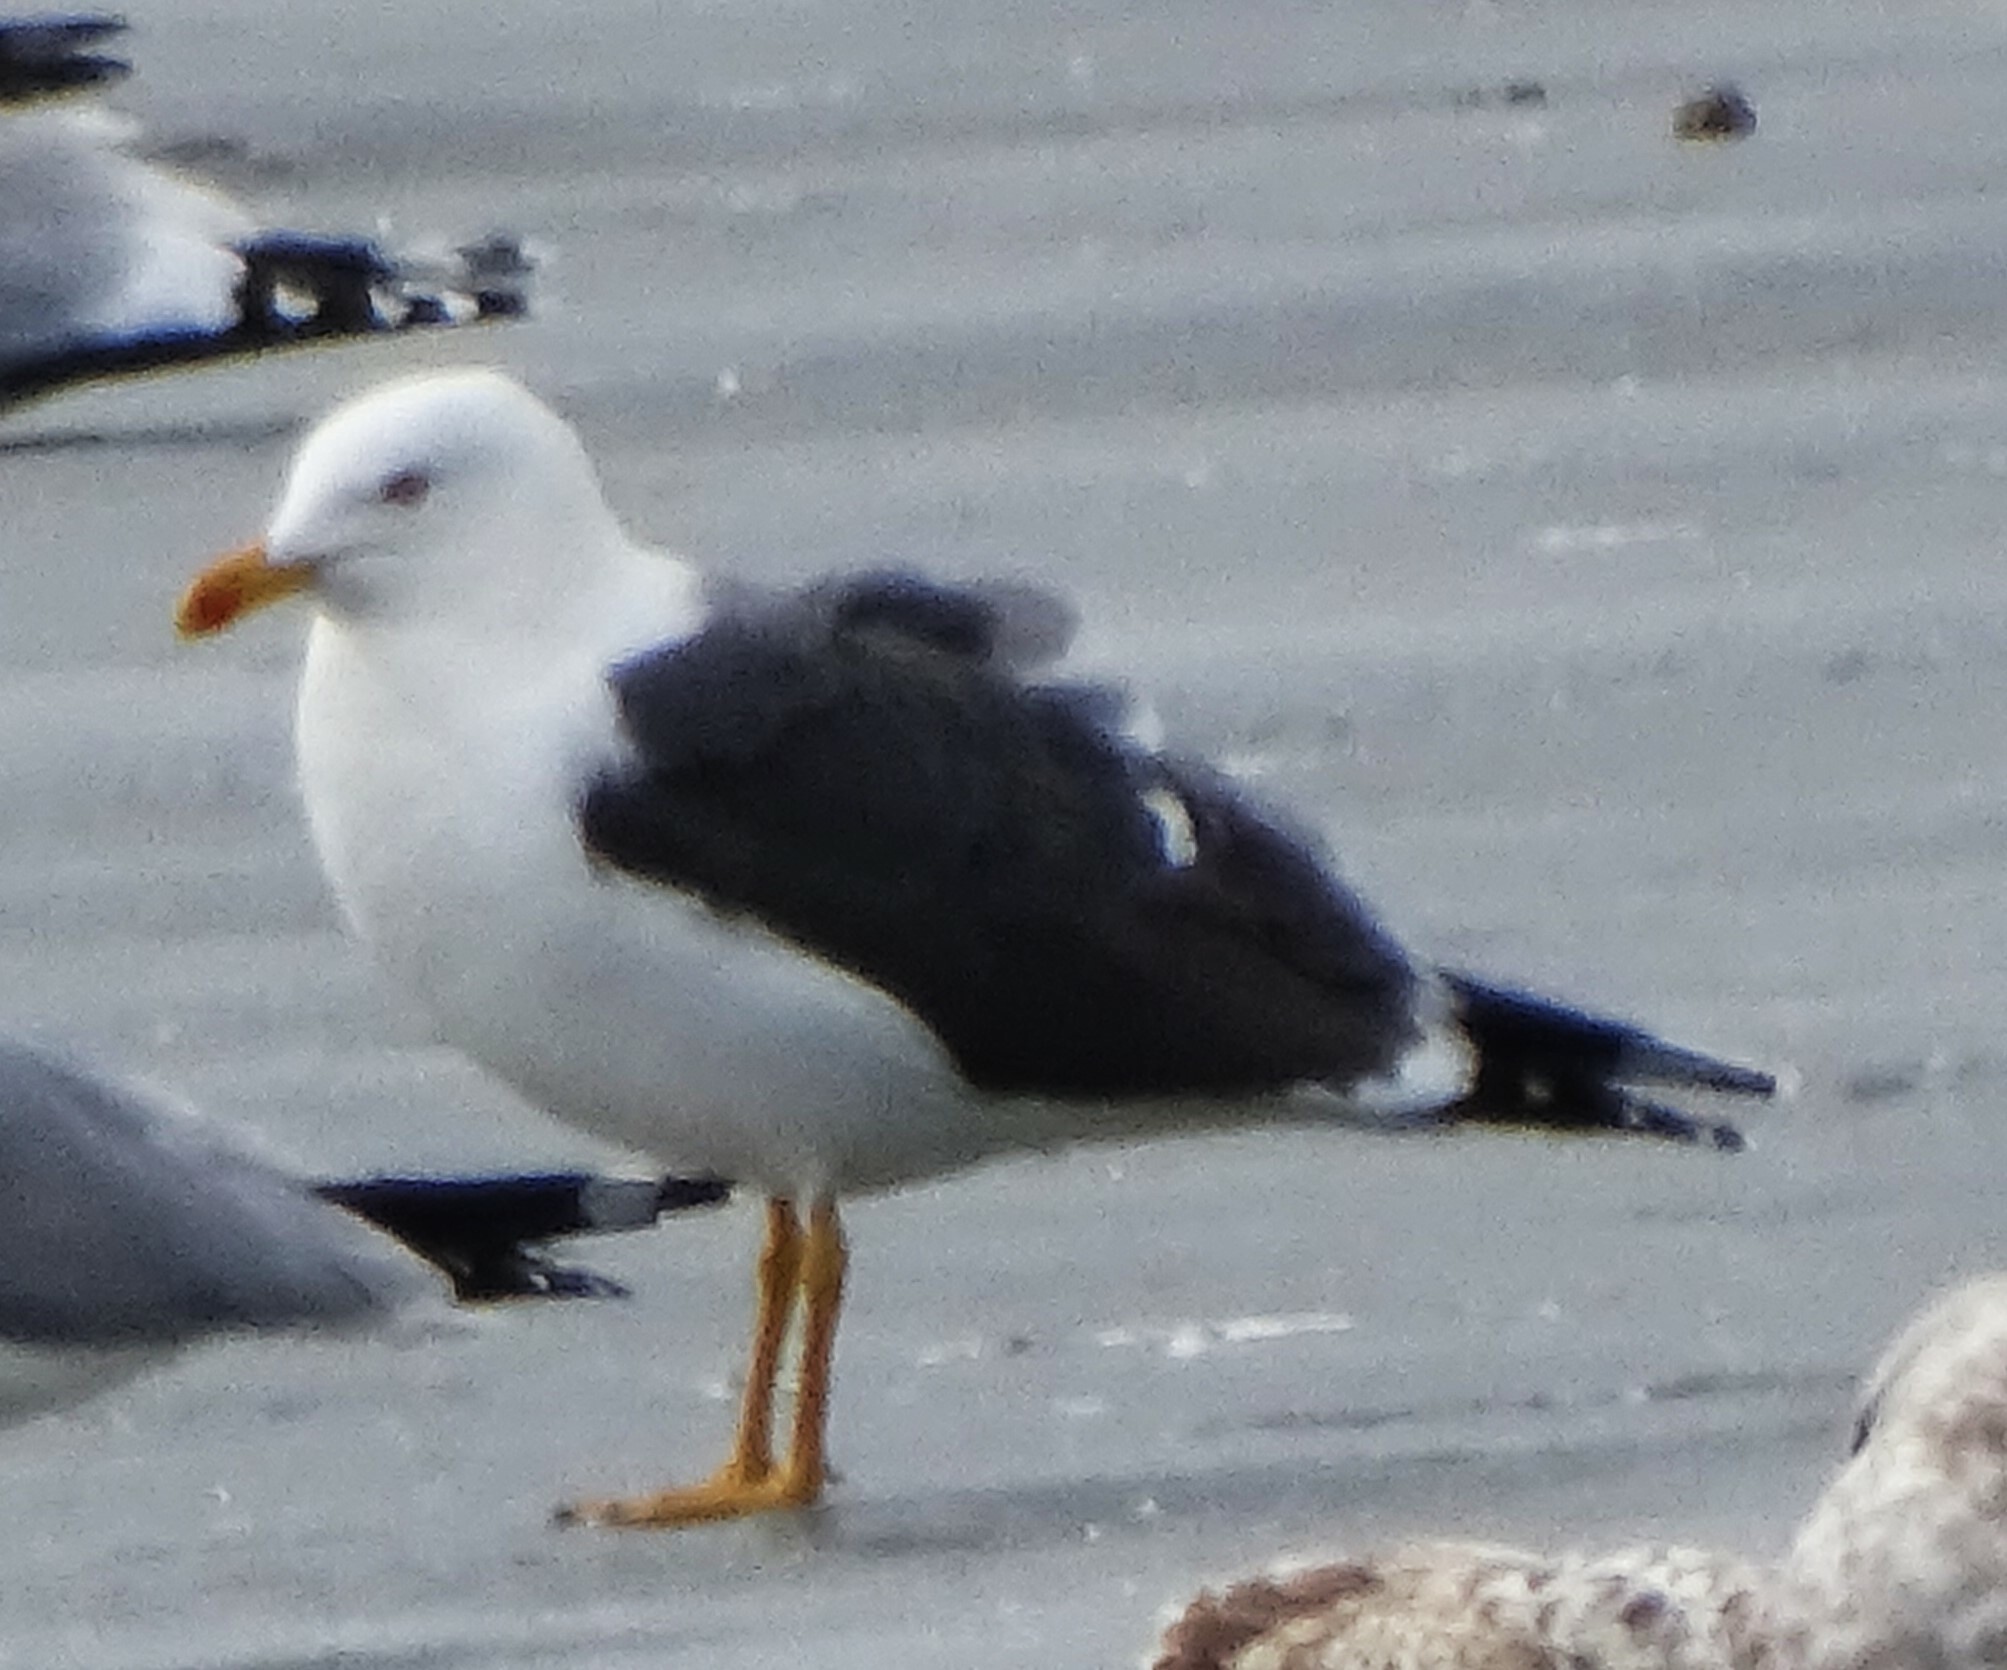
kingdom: Animalia
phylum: Chordata
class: Aves
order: Charadriiformes
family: Laridae
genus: Larus
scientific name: Larus fuscus
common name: Lesser black-backed gull
